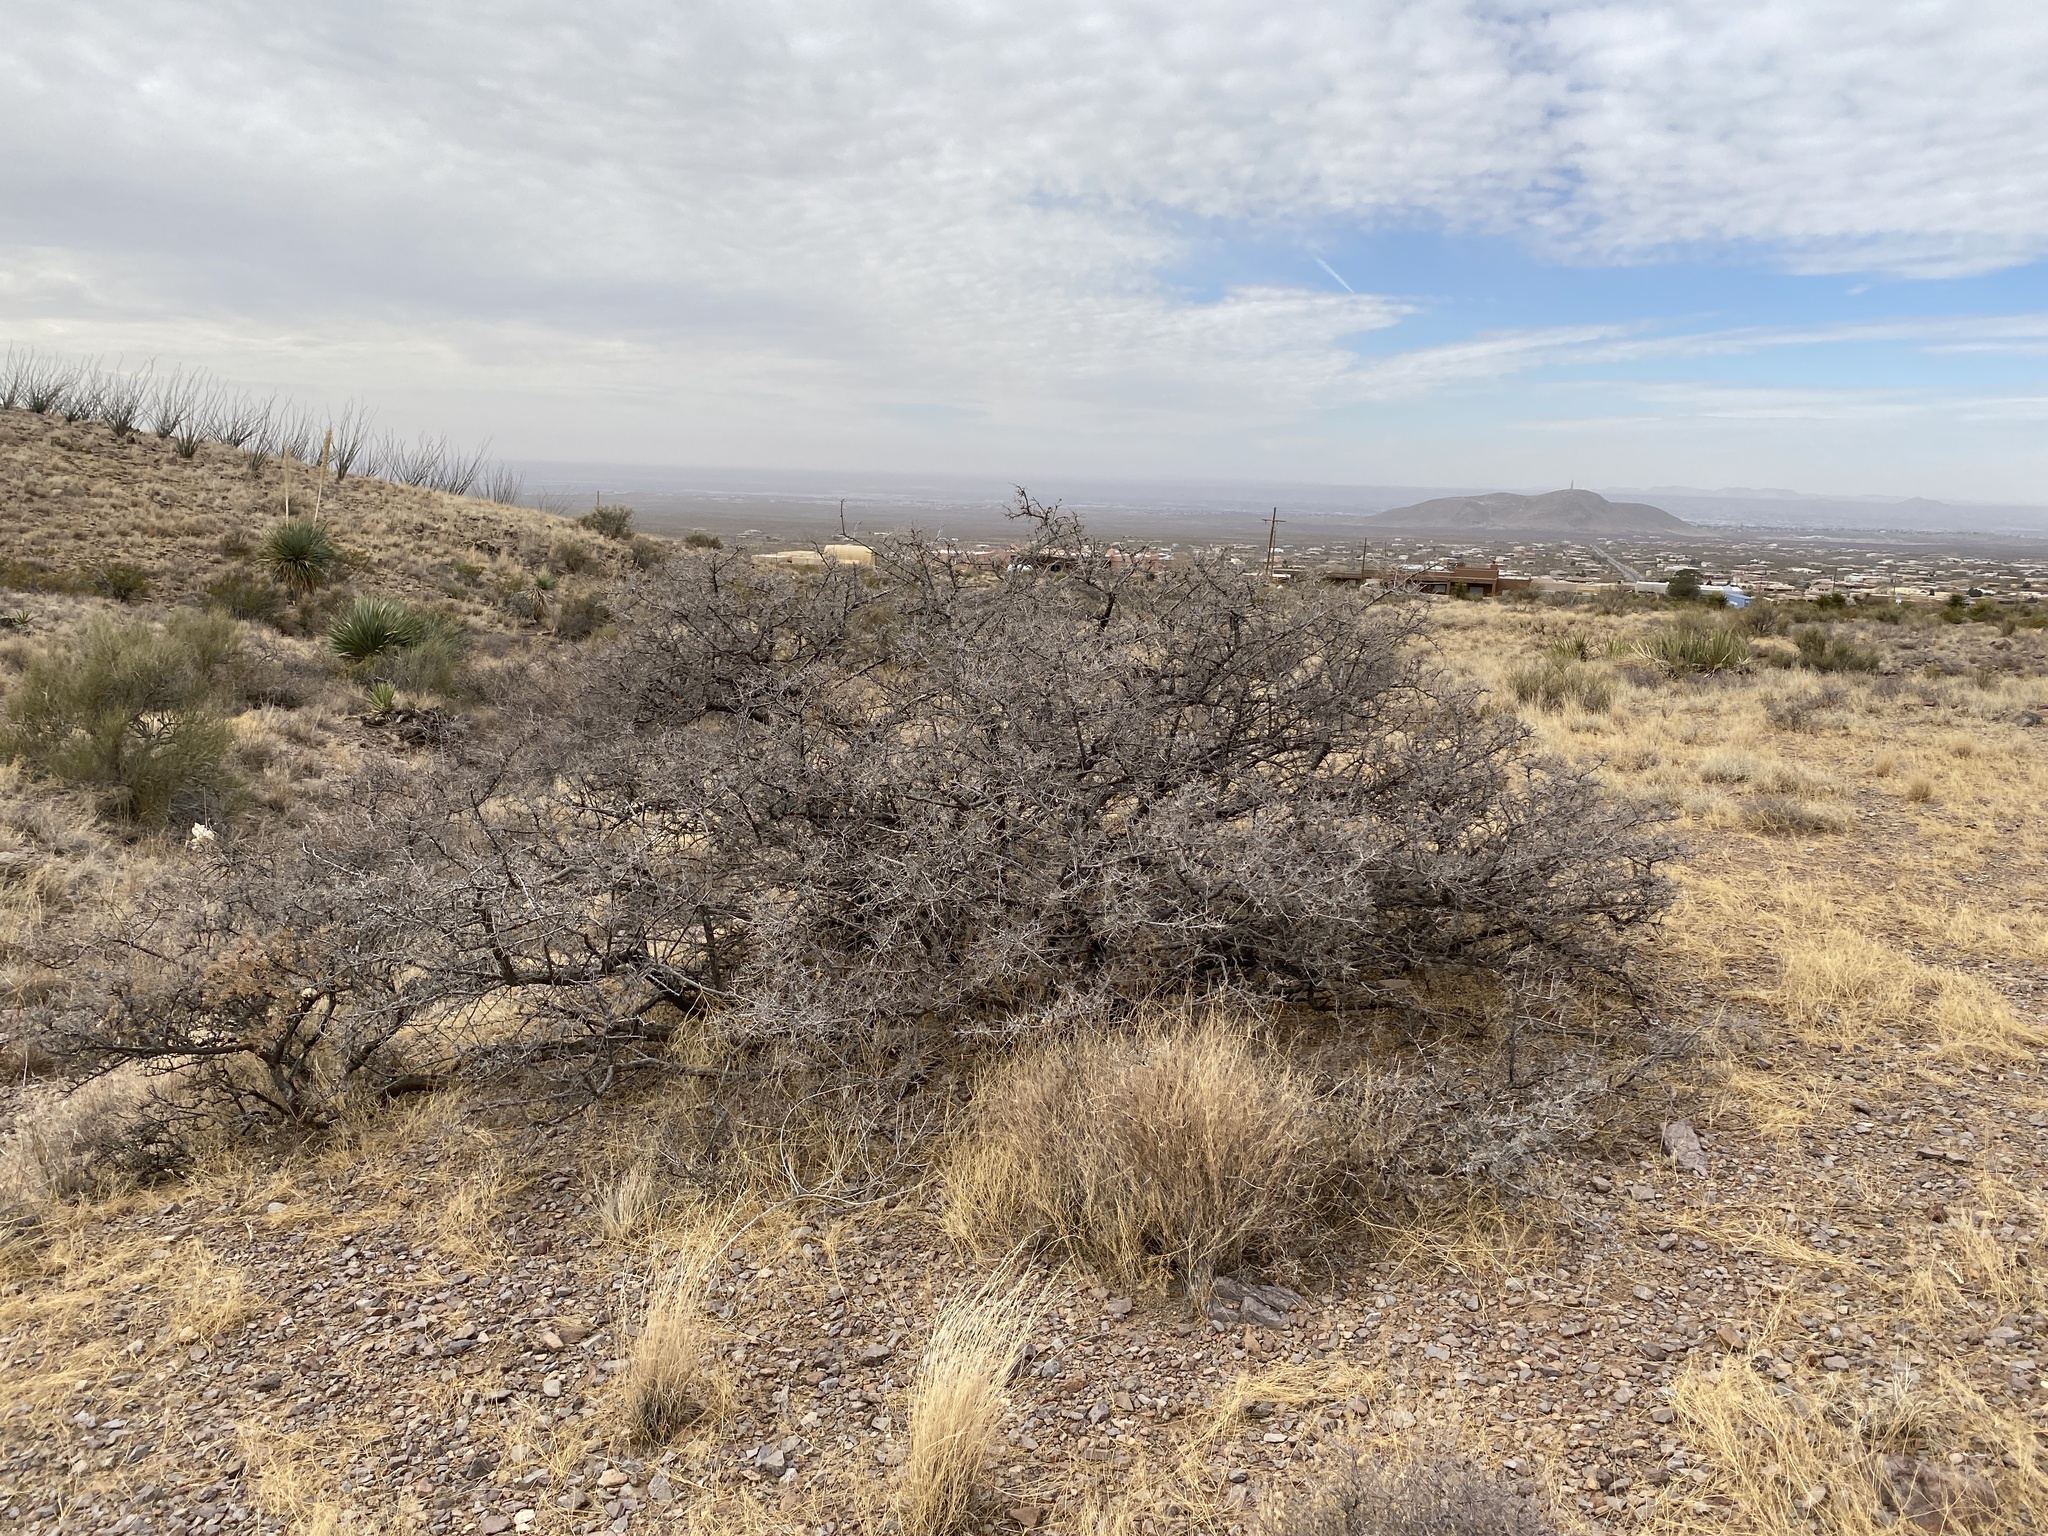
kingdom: Plantae
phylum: Tracheophyta
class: Magnoliopsida
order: Sapindales
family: Anacardiaceae
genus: Rhus
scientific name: Rhus microphylla
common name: Desert sumac
